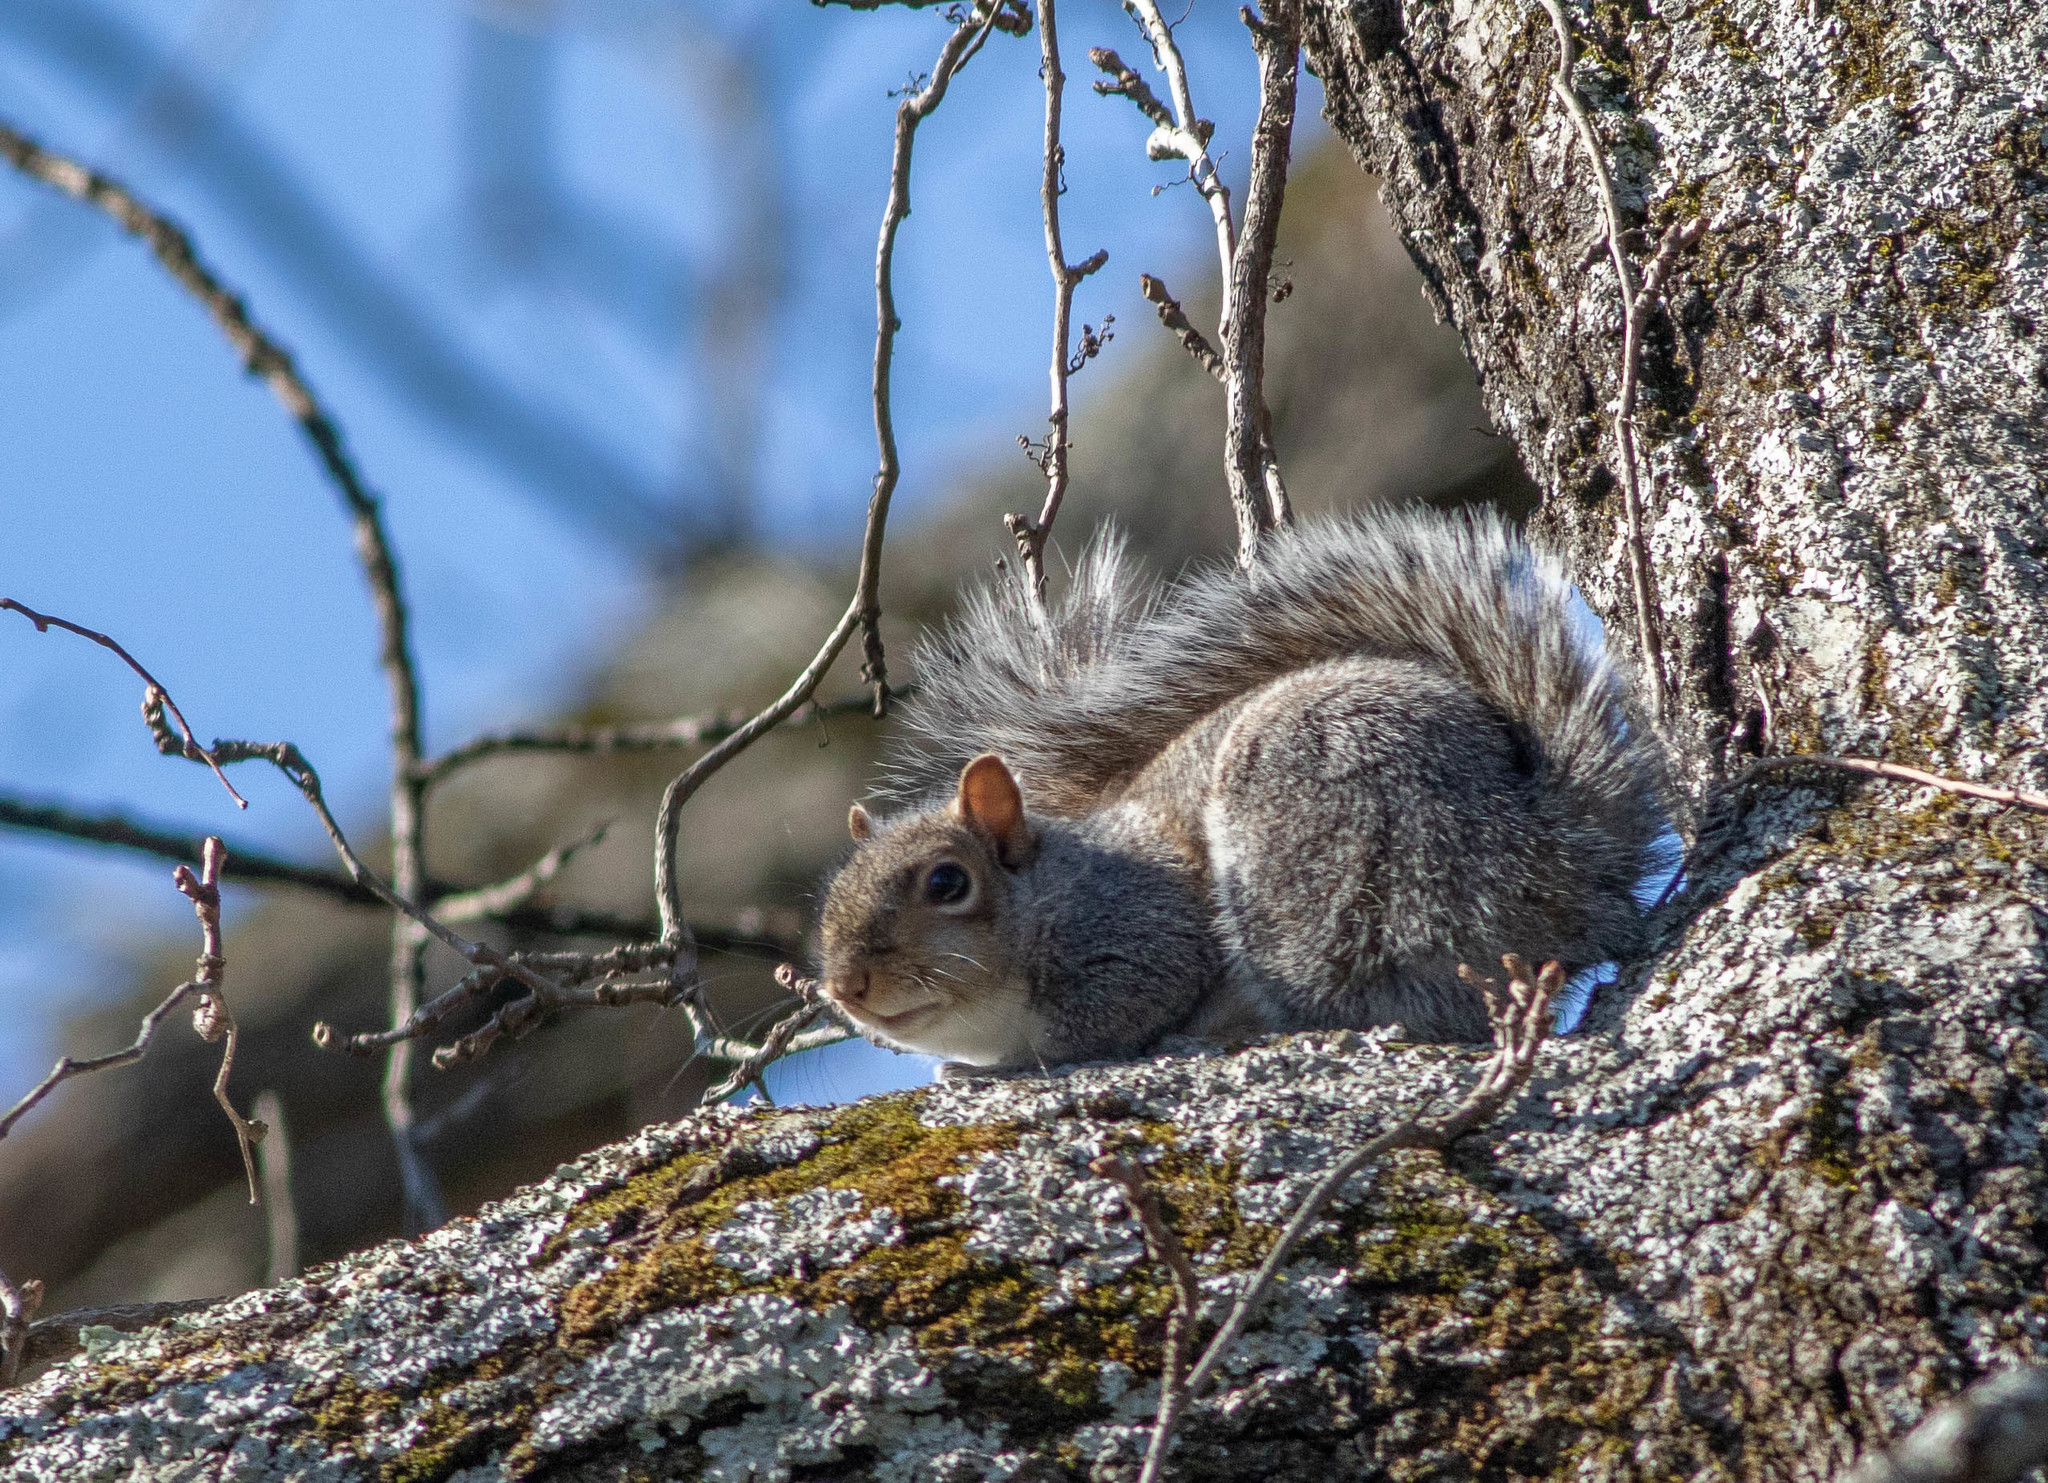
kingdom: Animalia
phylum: Chordata
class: Mammalia
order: Rodentia
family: Sciuridae
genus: Sciurus
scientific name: Sciurus carolinensis
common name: Eastern gray squirrel
